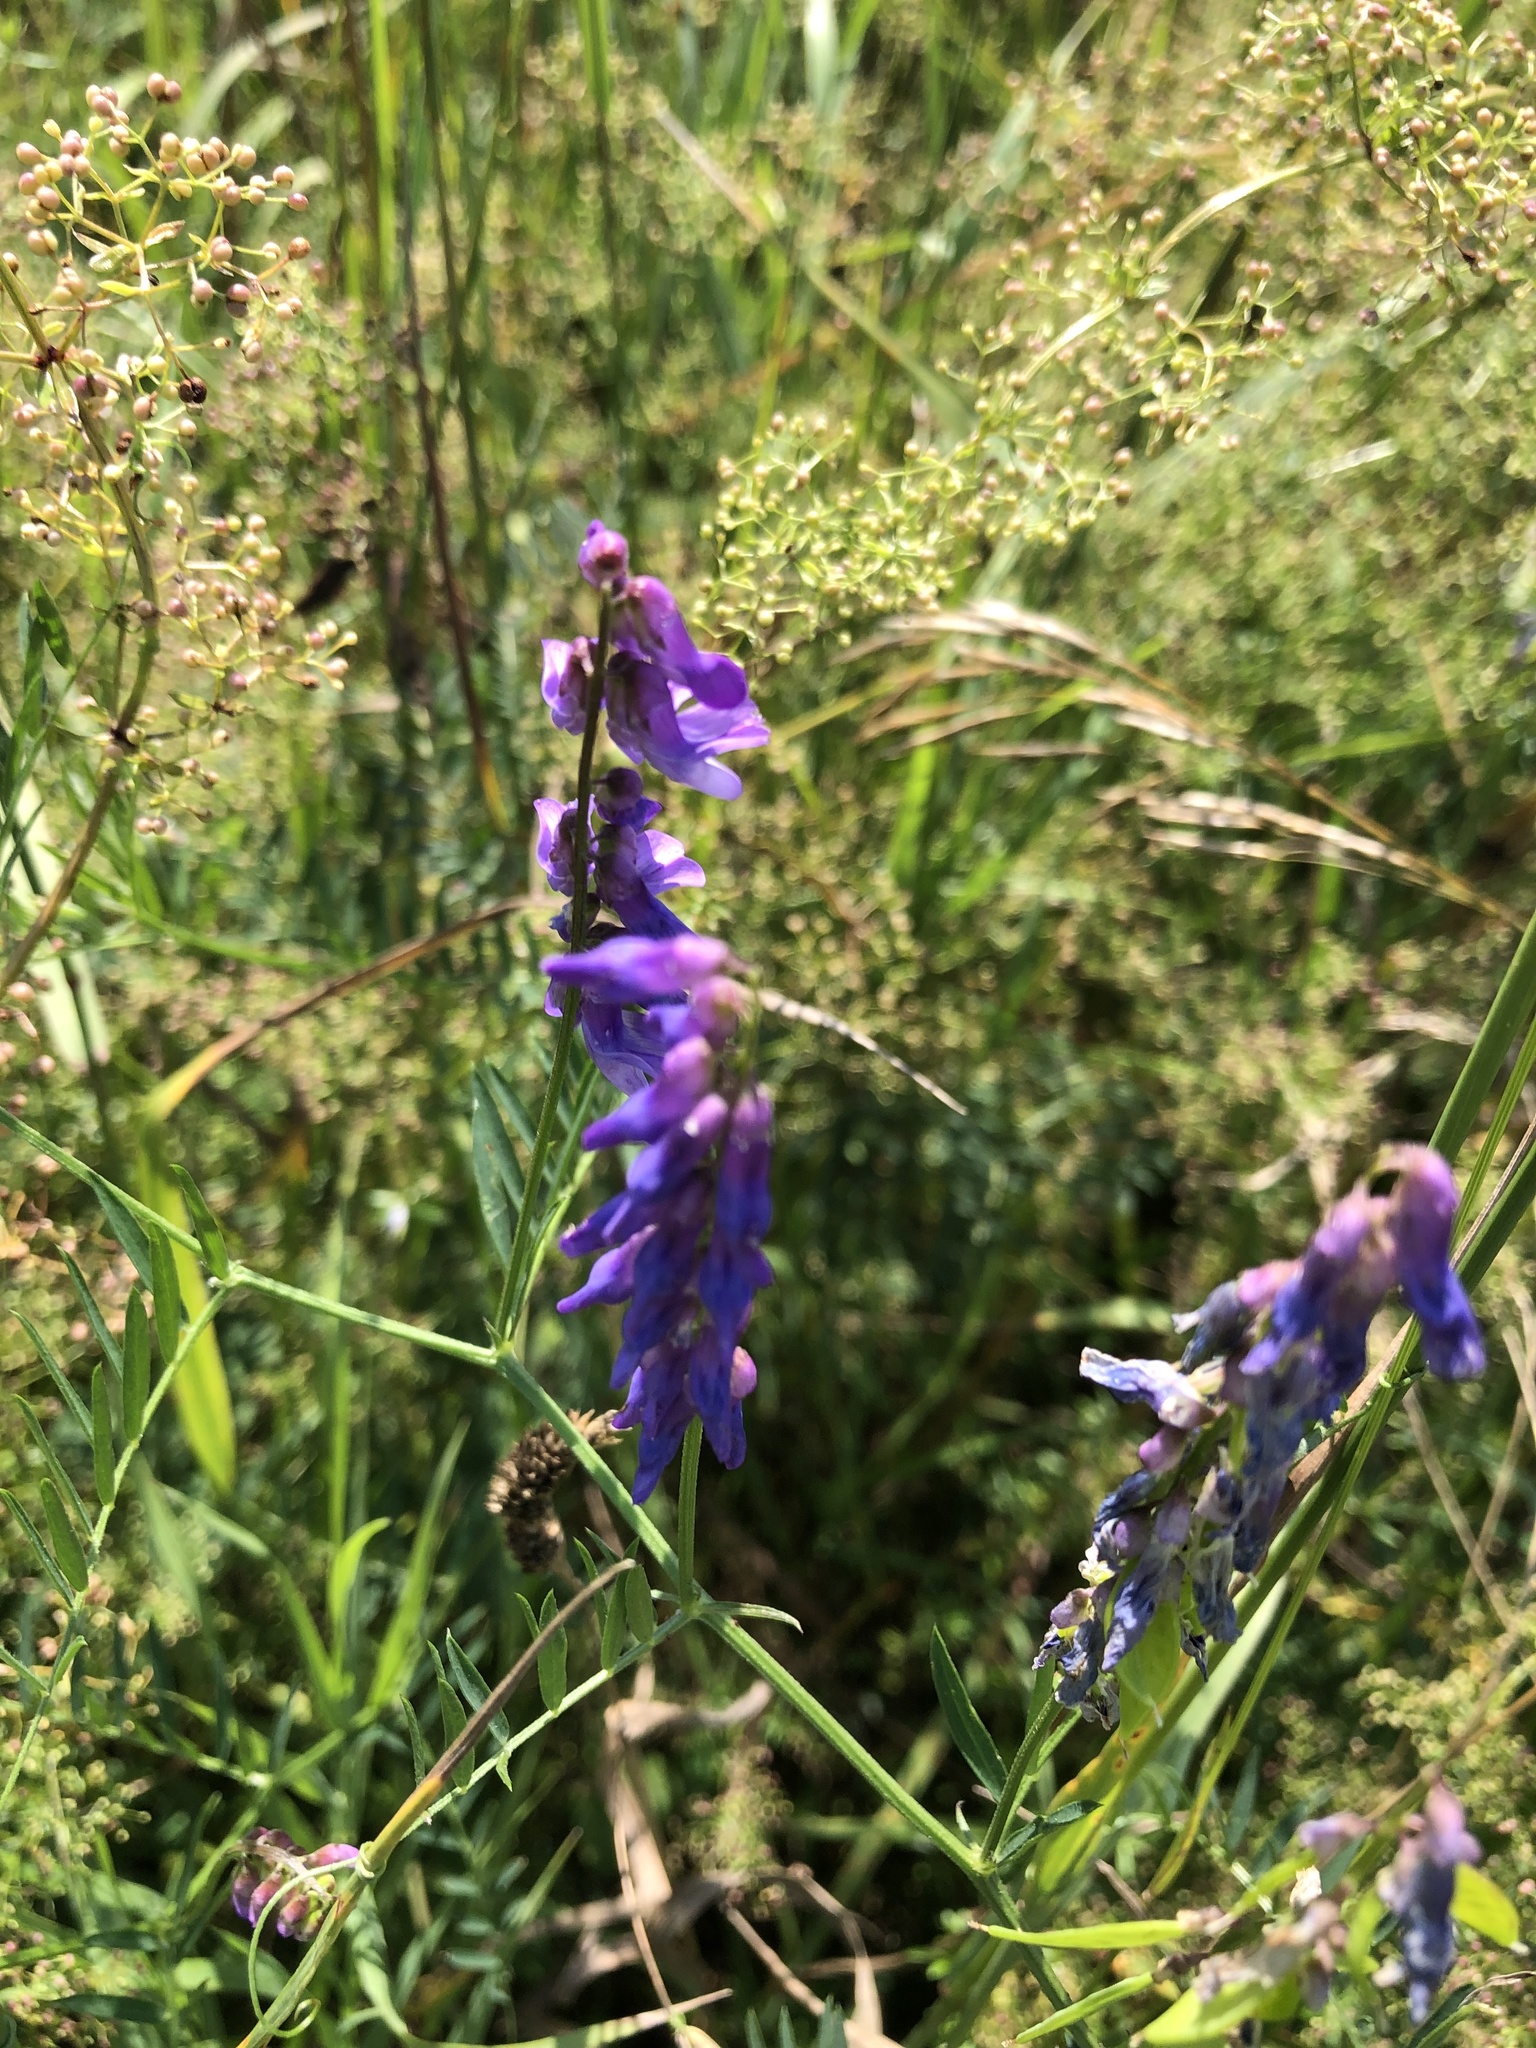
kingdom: Plantae
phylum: Tracheophyta
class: Magnoliopsida
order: Fabales
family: Fabaceae
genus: Vicia
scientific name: Vicia cracca
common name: Bird vetch
